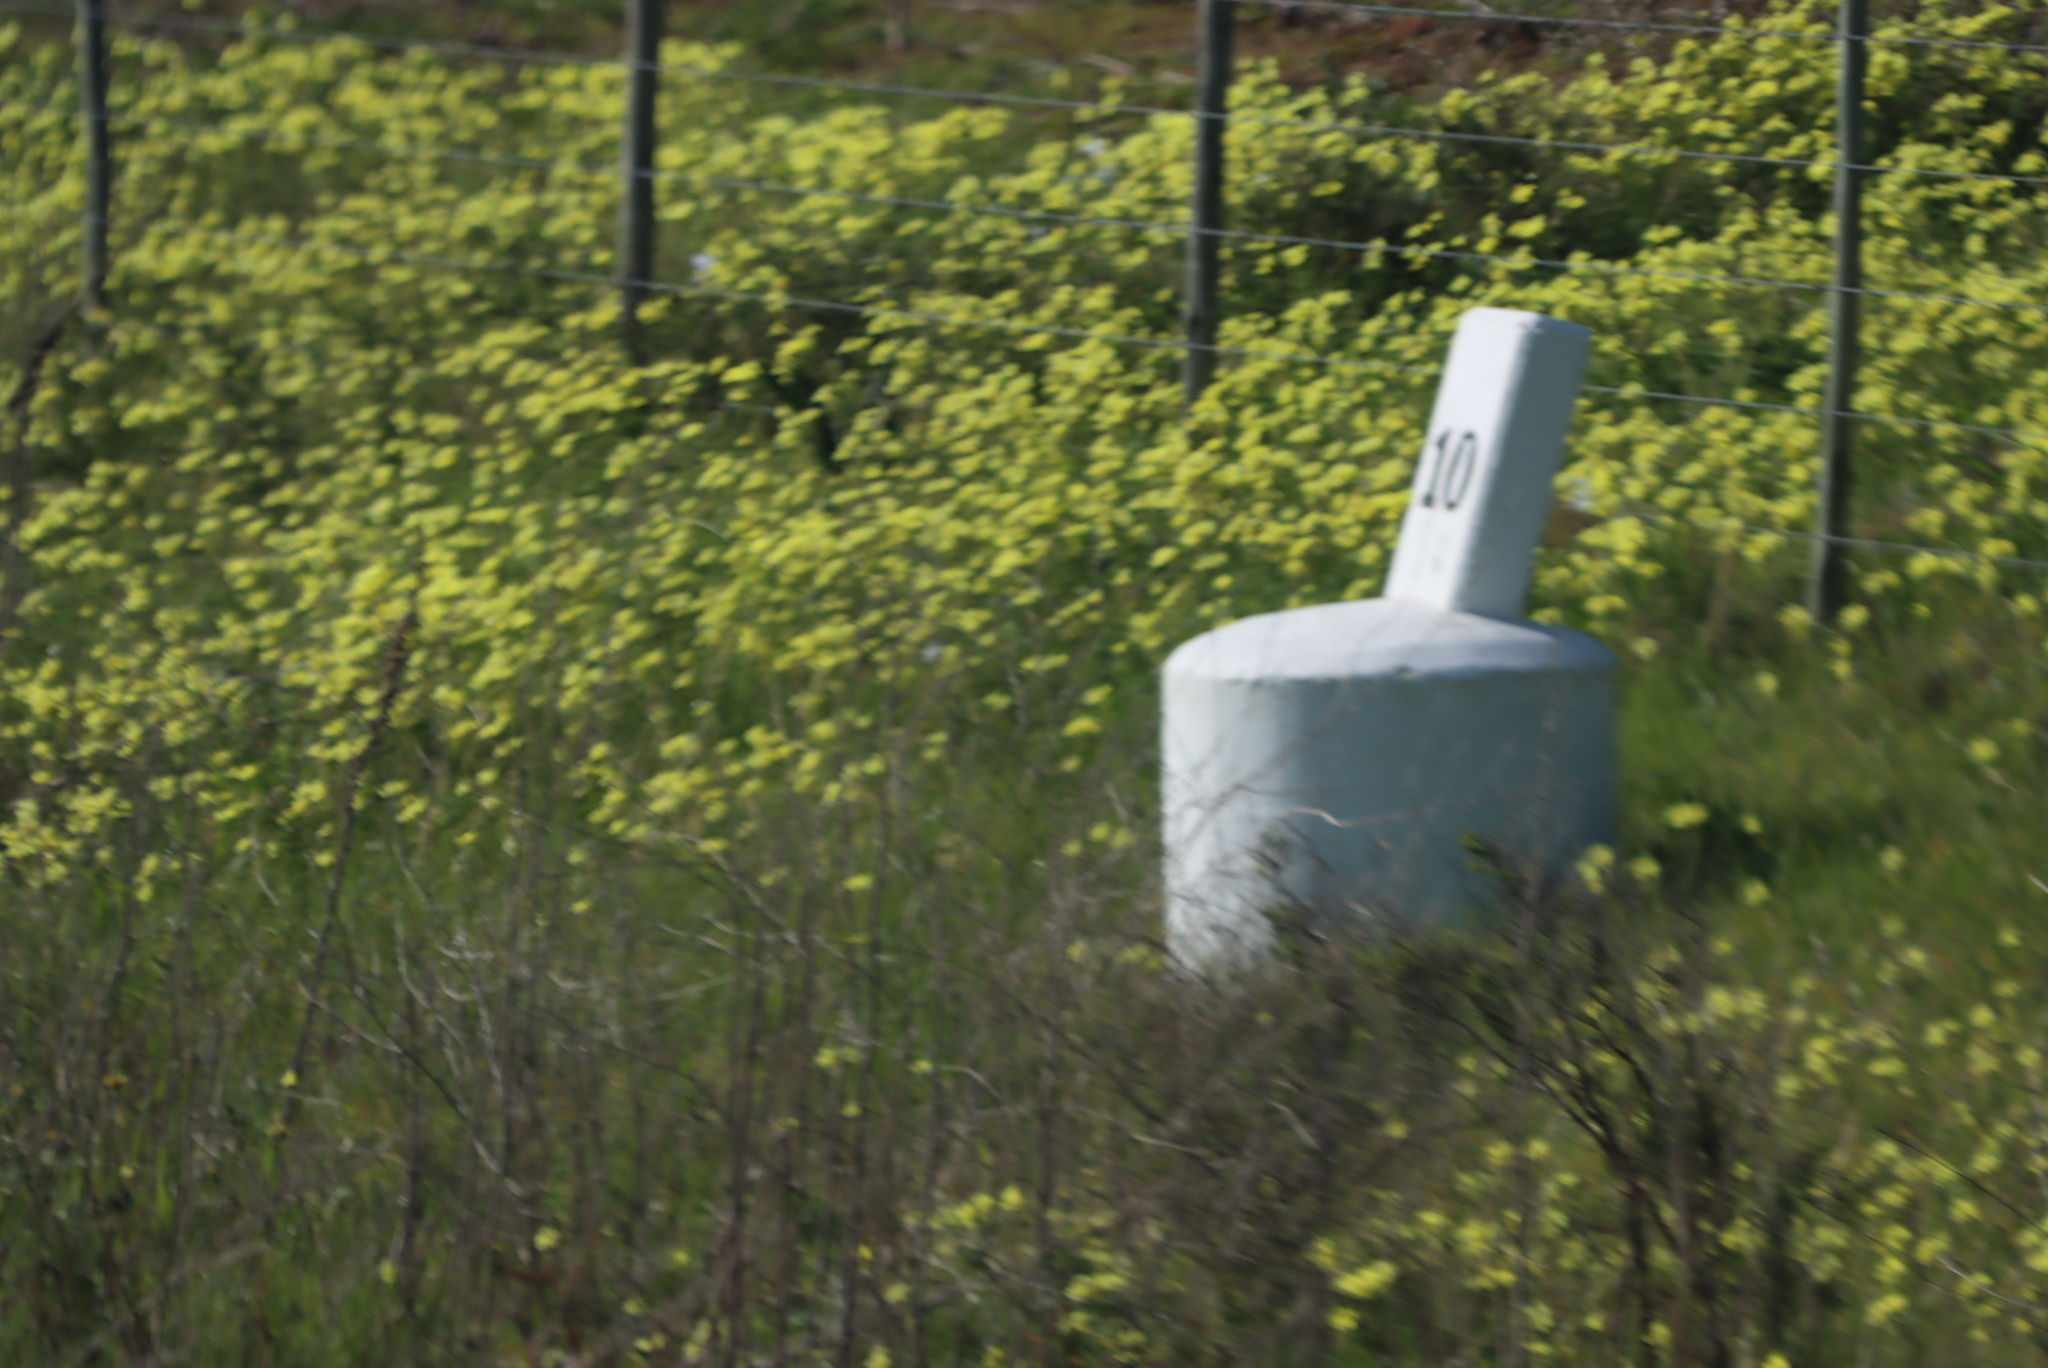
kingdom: Plantae
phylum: Tracheophyta
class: Magnoliopsida
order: Oxalidales
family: Oxalidaceae
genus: Oxalis
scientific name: Oxalis pes-caprae
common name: Bermuda-buttercup
